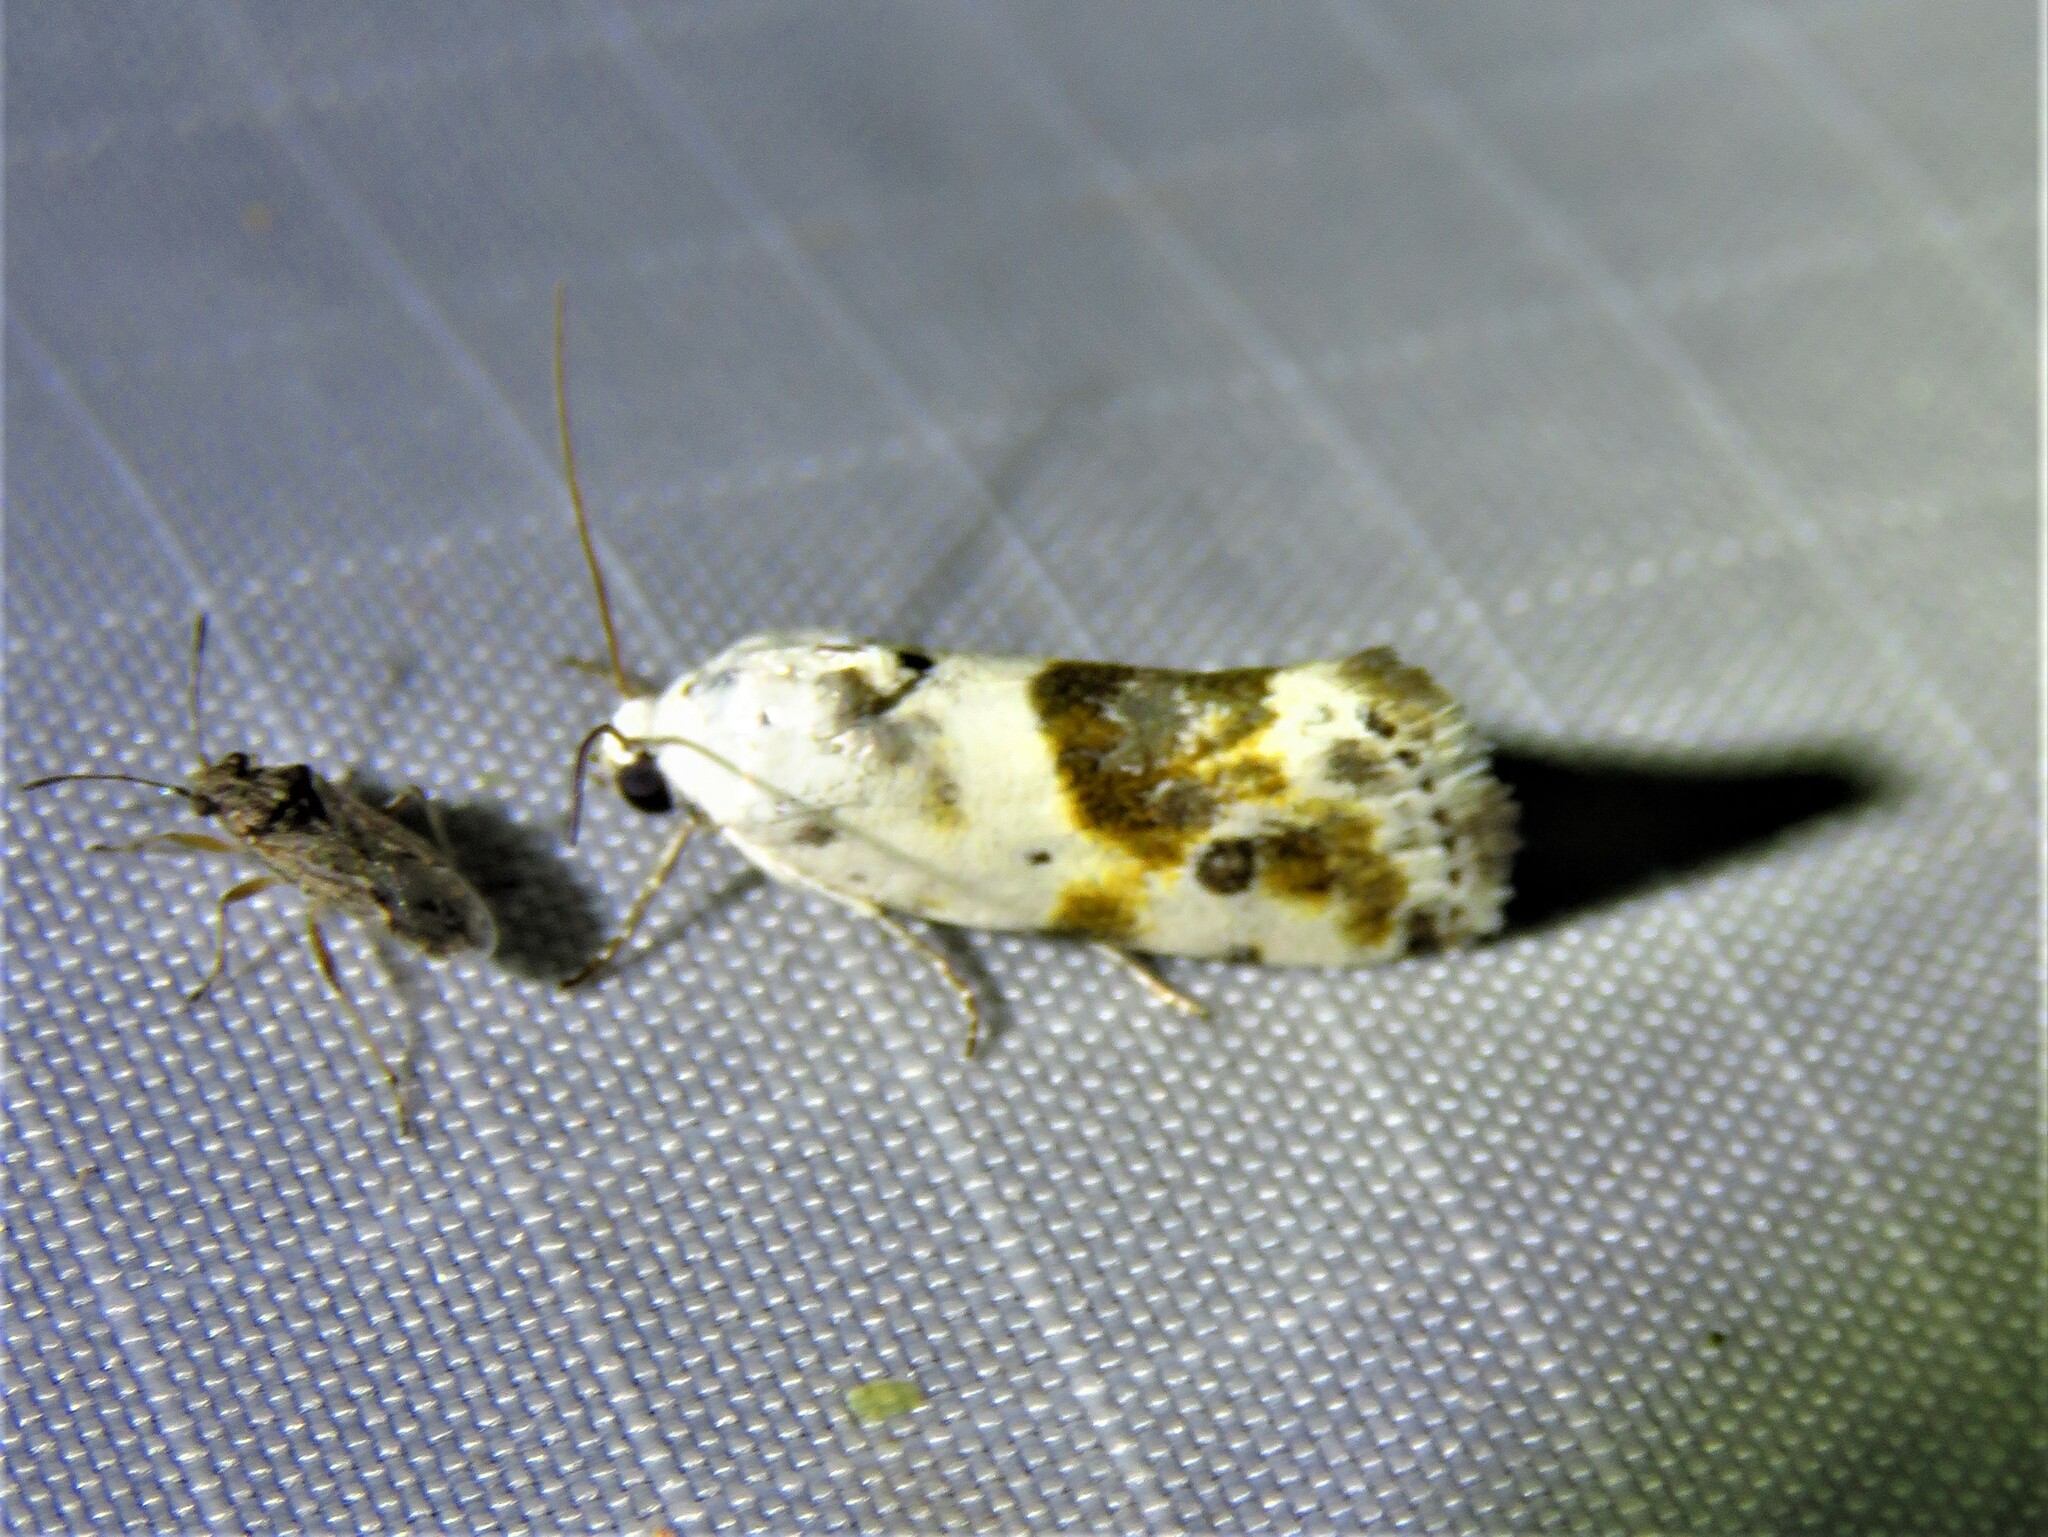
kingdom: Animalia
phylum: Arthropoda
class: Insecta
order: Lepidoptera
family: Noctuidae
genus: Acontia
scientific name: Acontia candefacta
